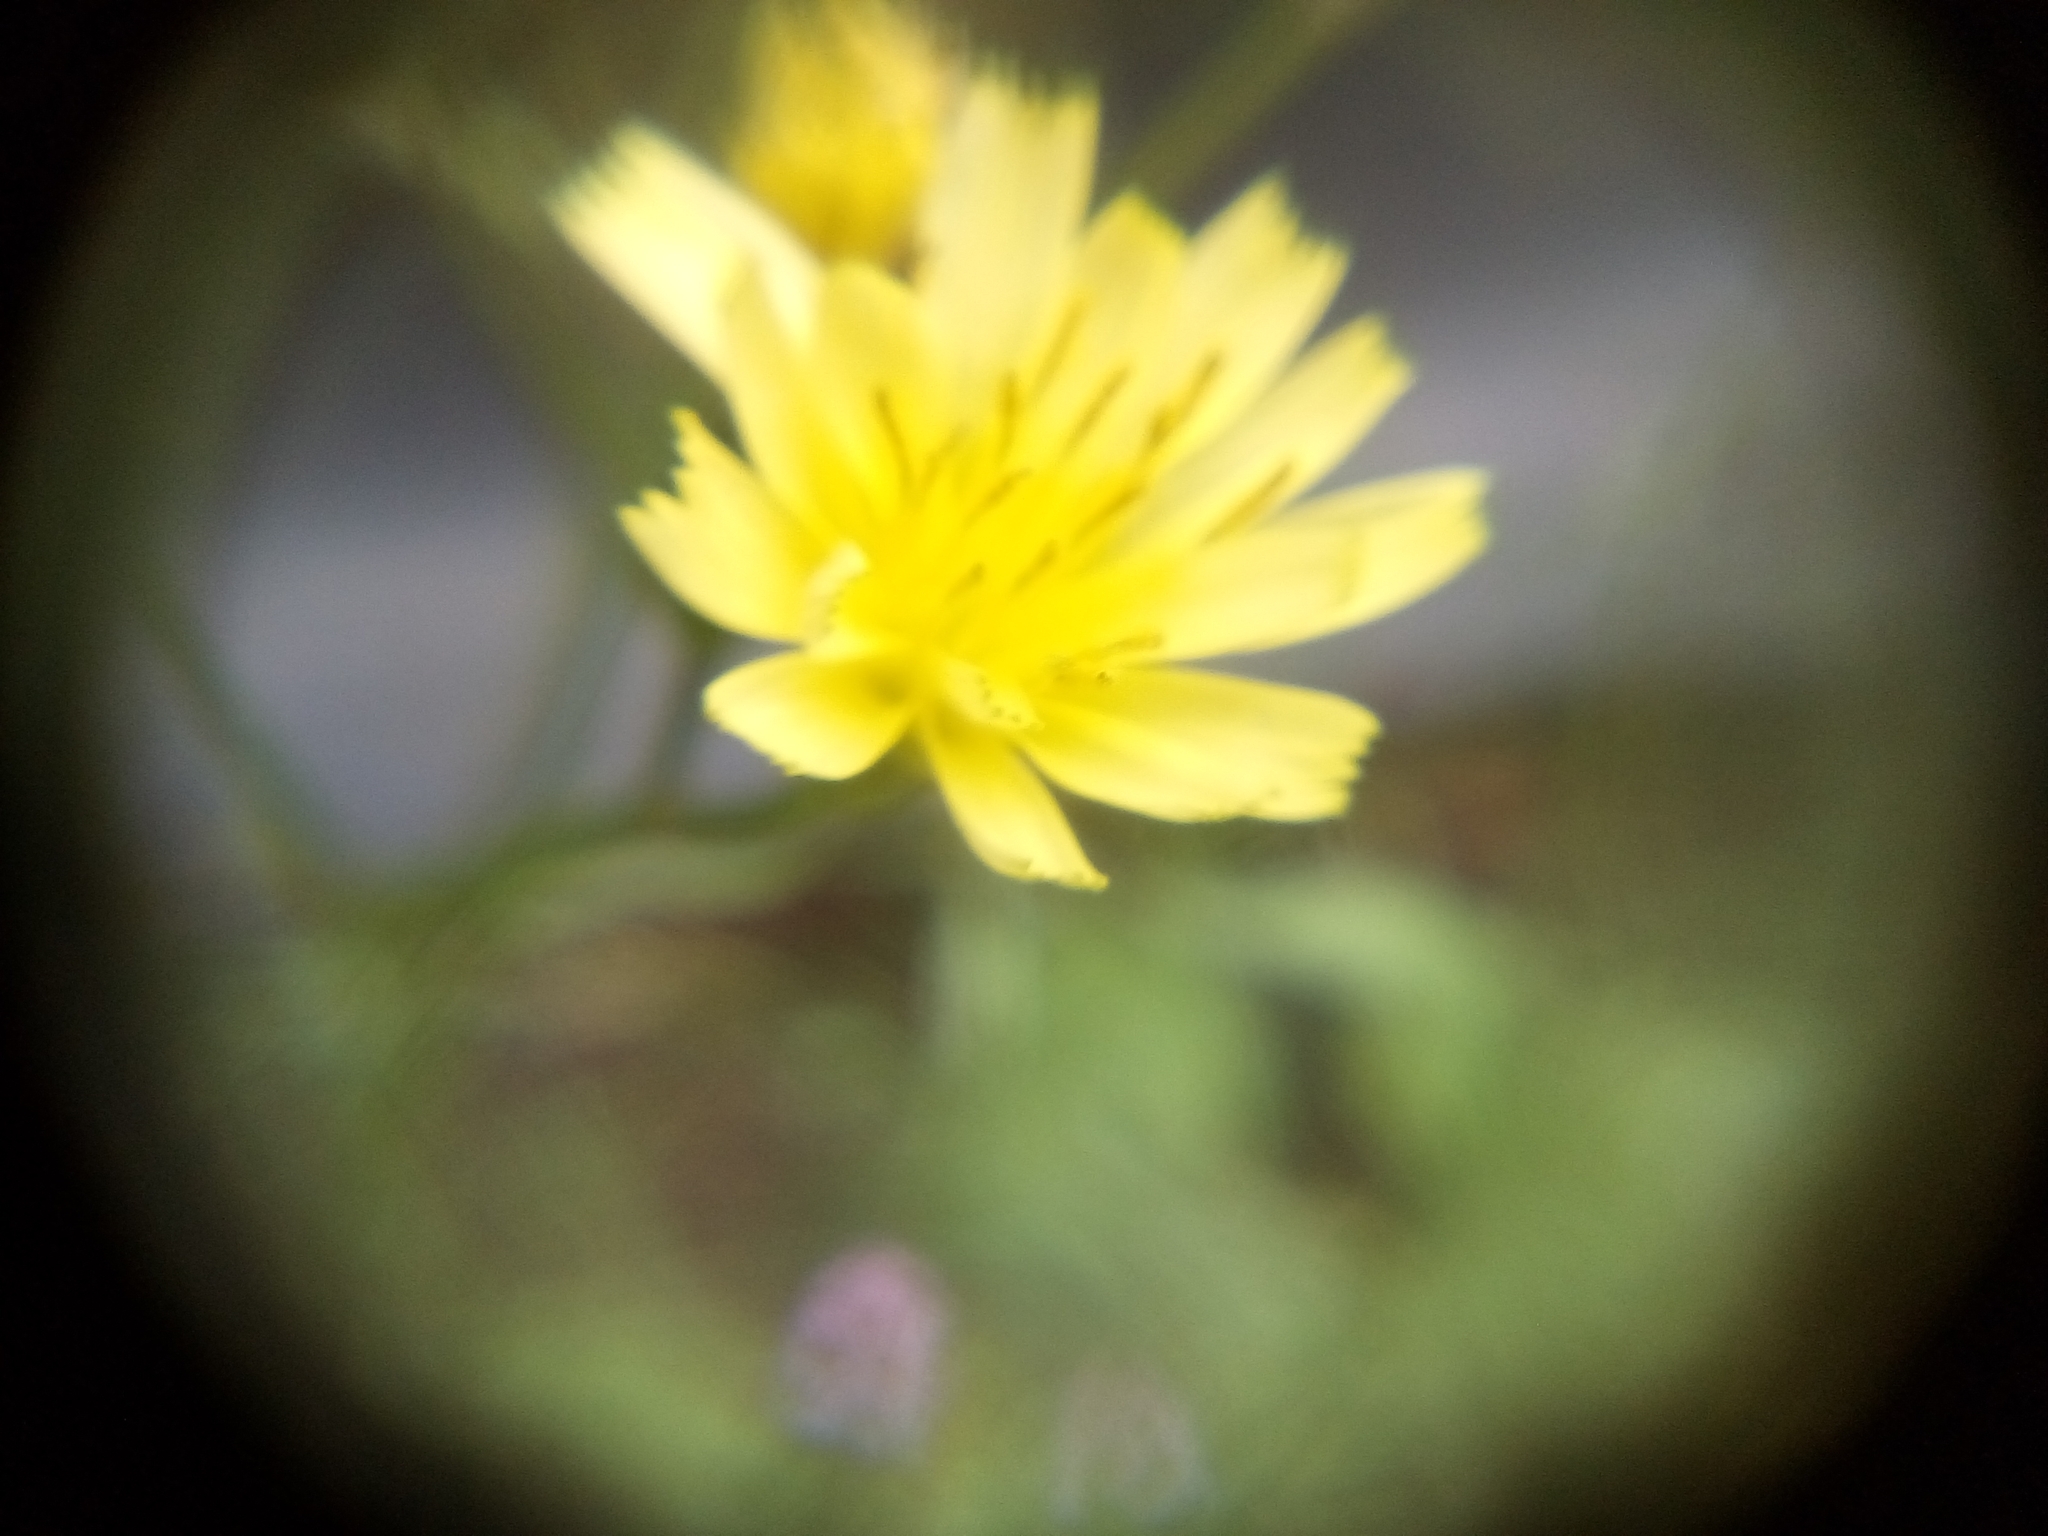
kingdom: Plantae
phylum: Tracheophyta
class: Magnoliopsida
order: Asterales
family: Asteraceae
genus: Lapsana
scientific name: Lapsana communis
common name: Nipplewort
